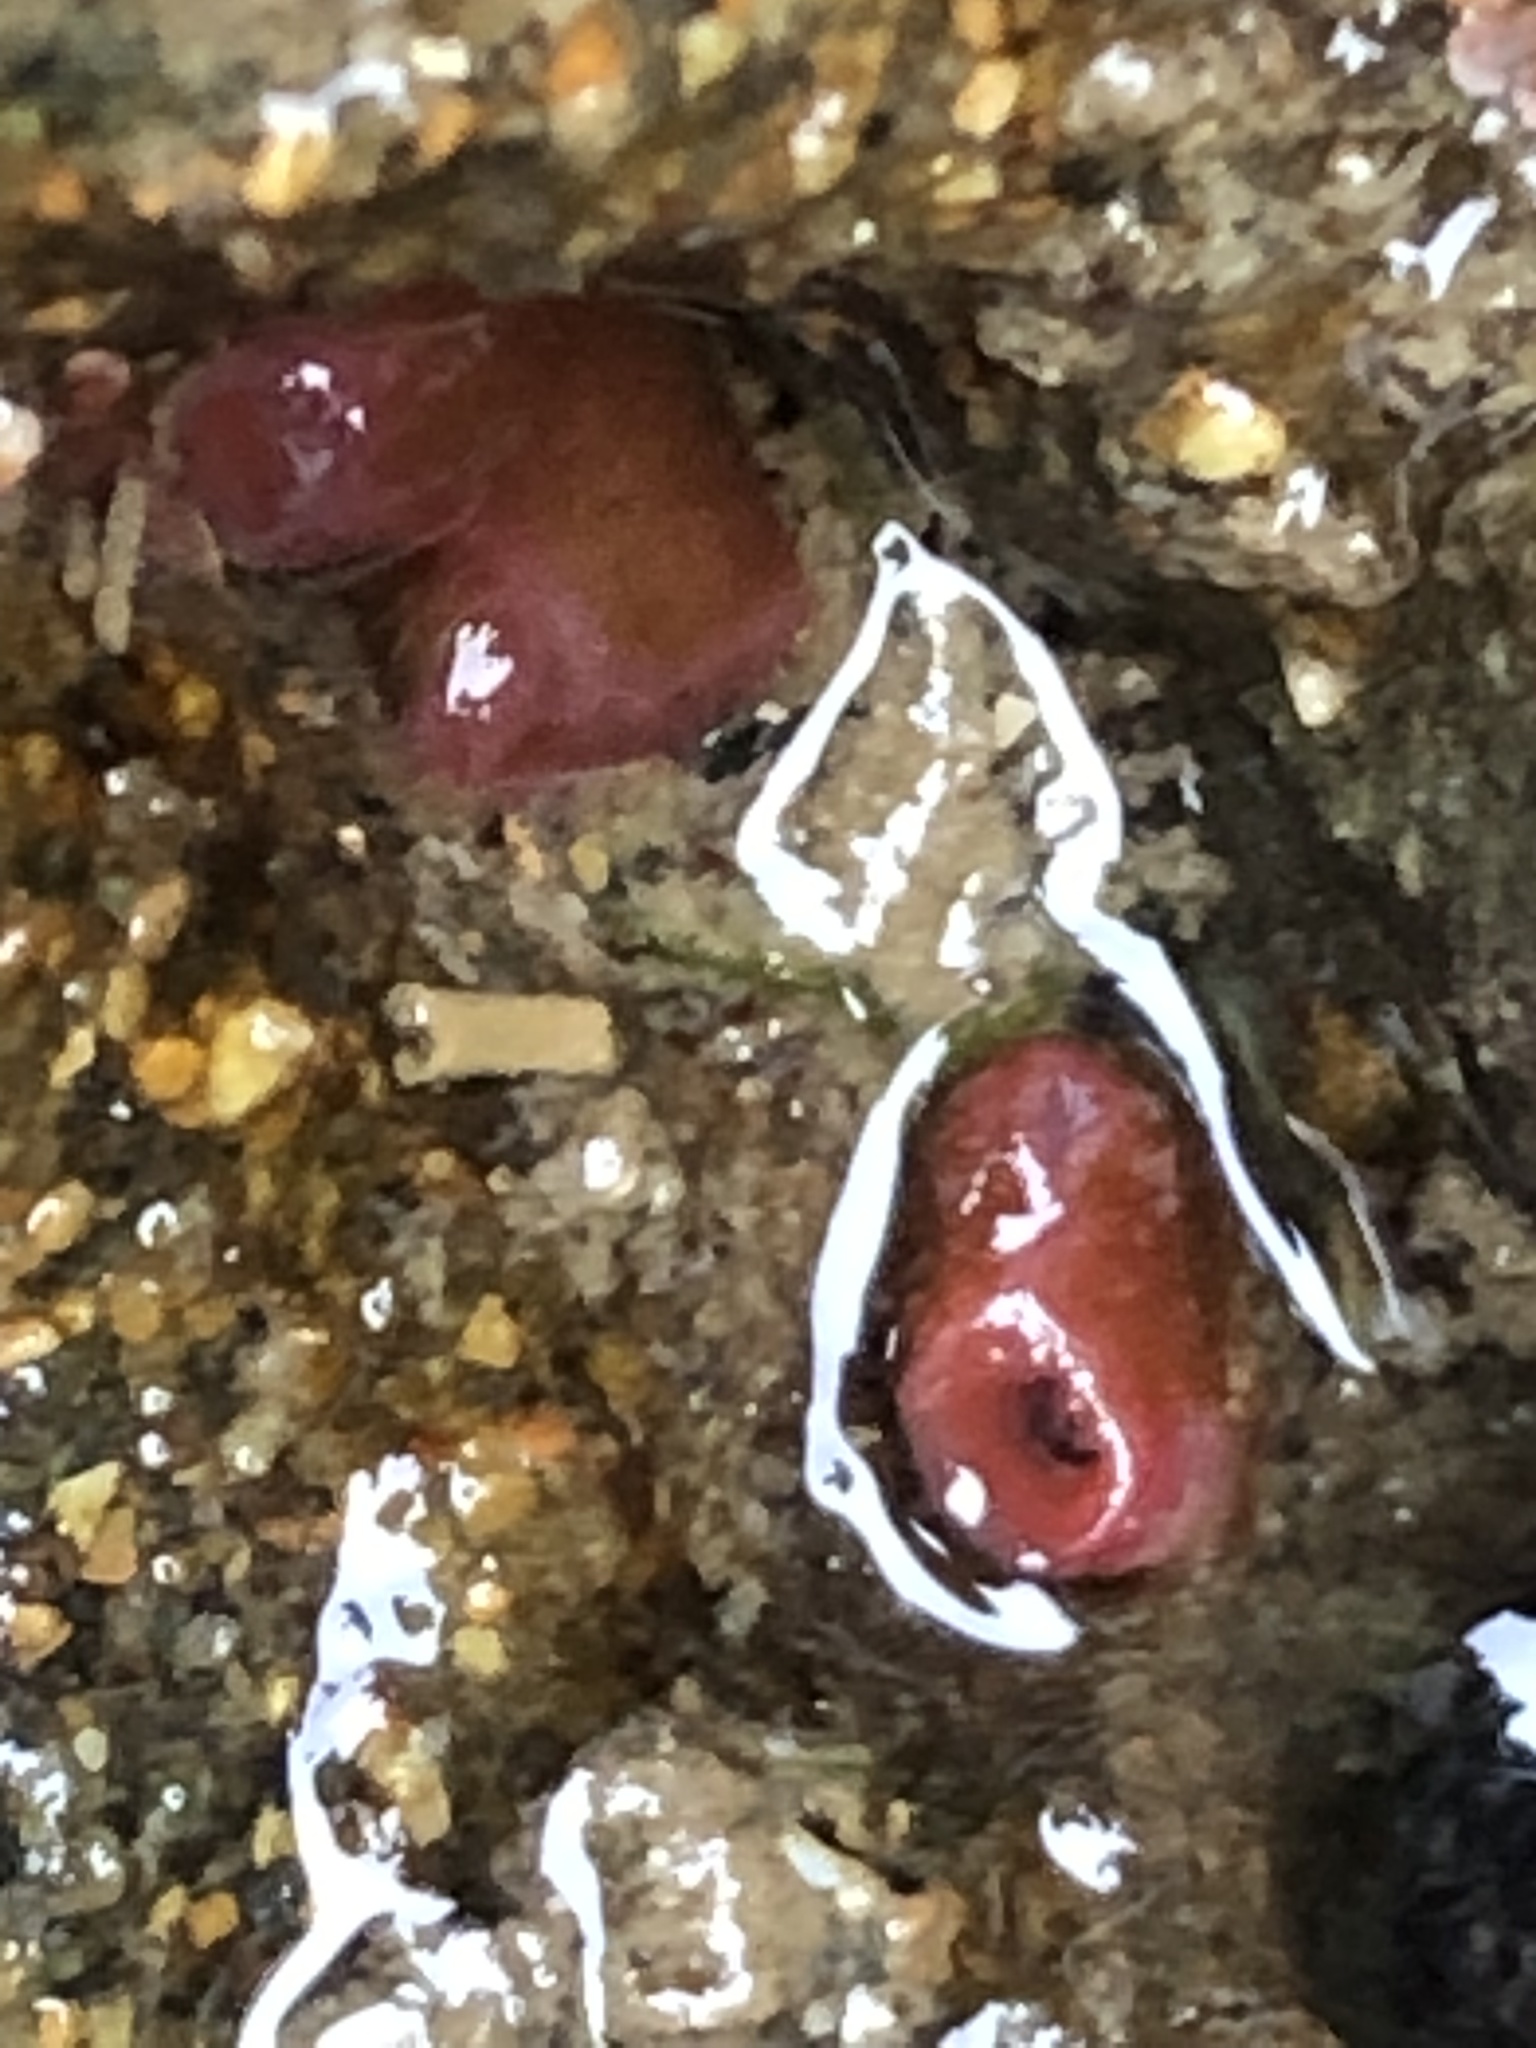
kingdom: Animalia
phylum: Mollusca
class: Bivalvia
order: Adapedonta
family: Hiatellidae
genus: Hiatella
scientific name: Hiatella arctica
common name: Arctic hiatella
